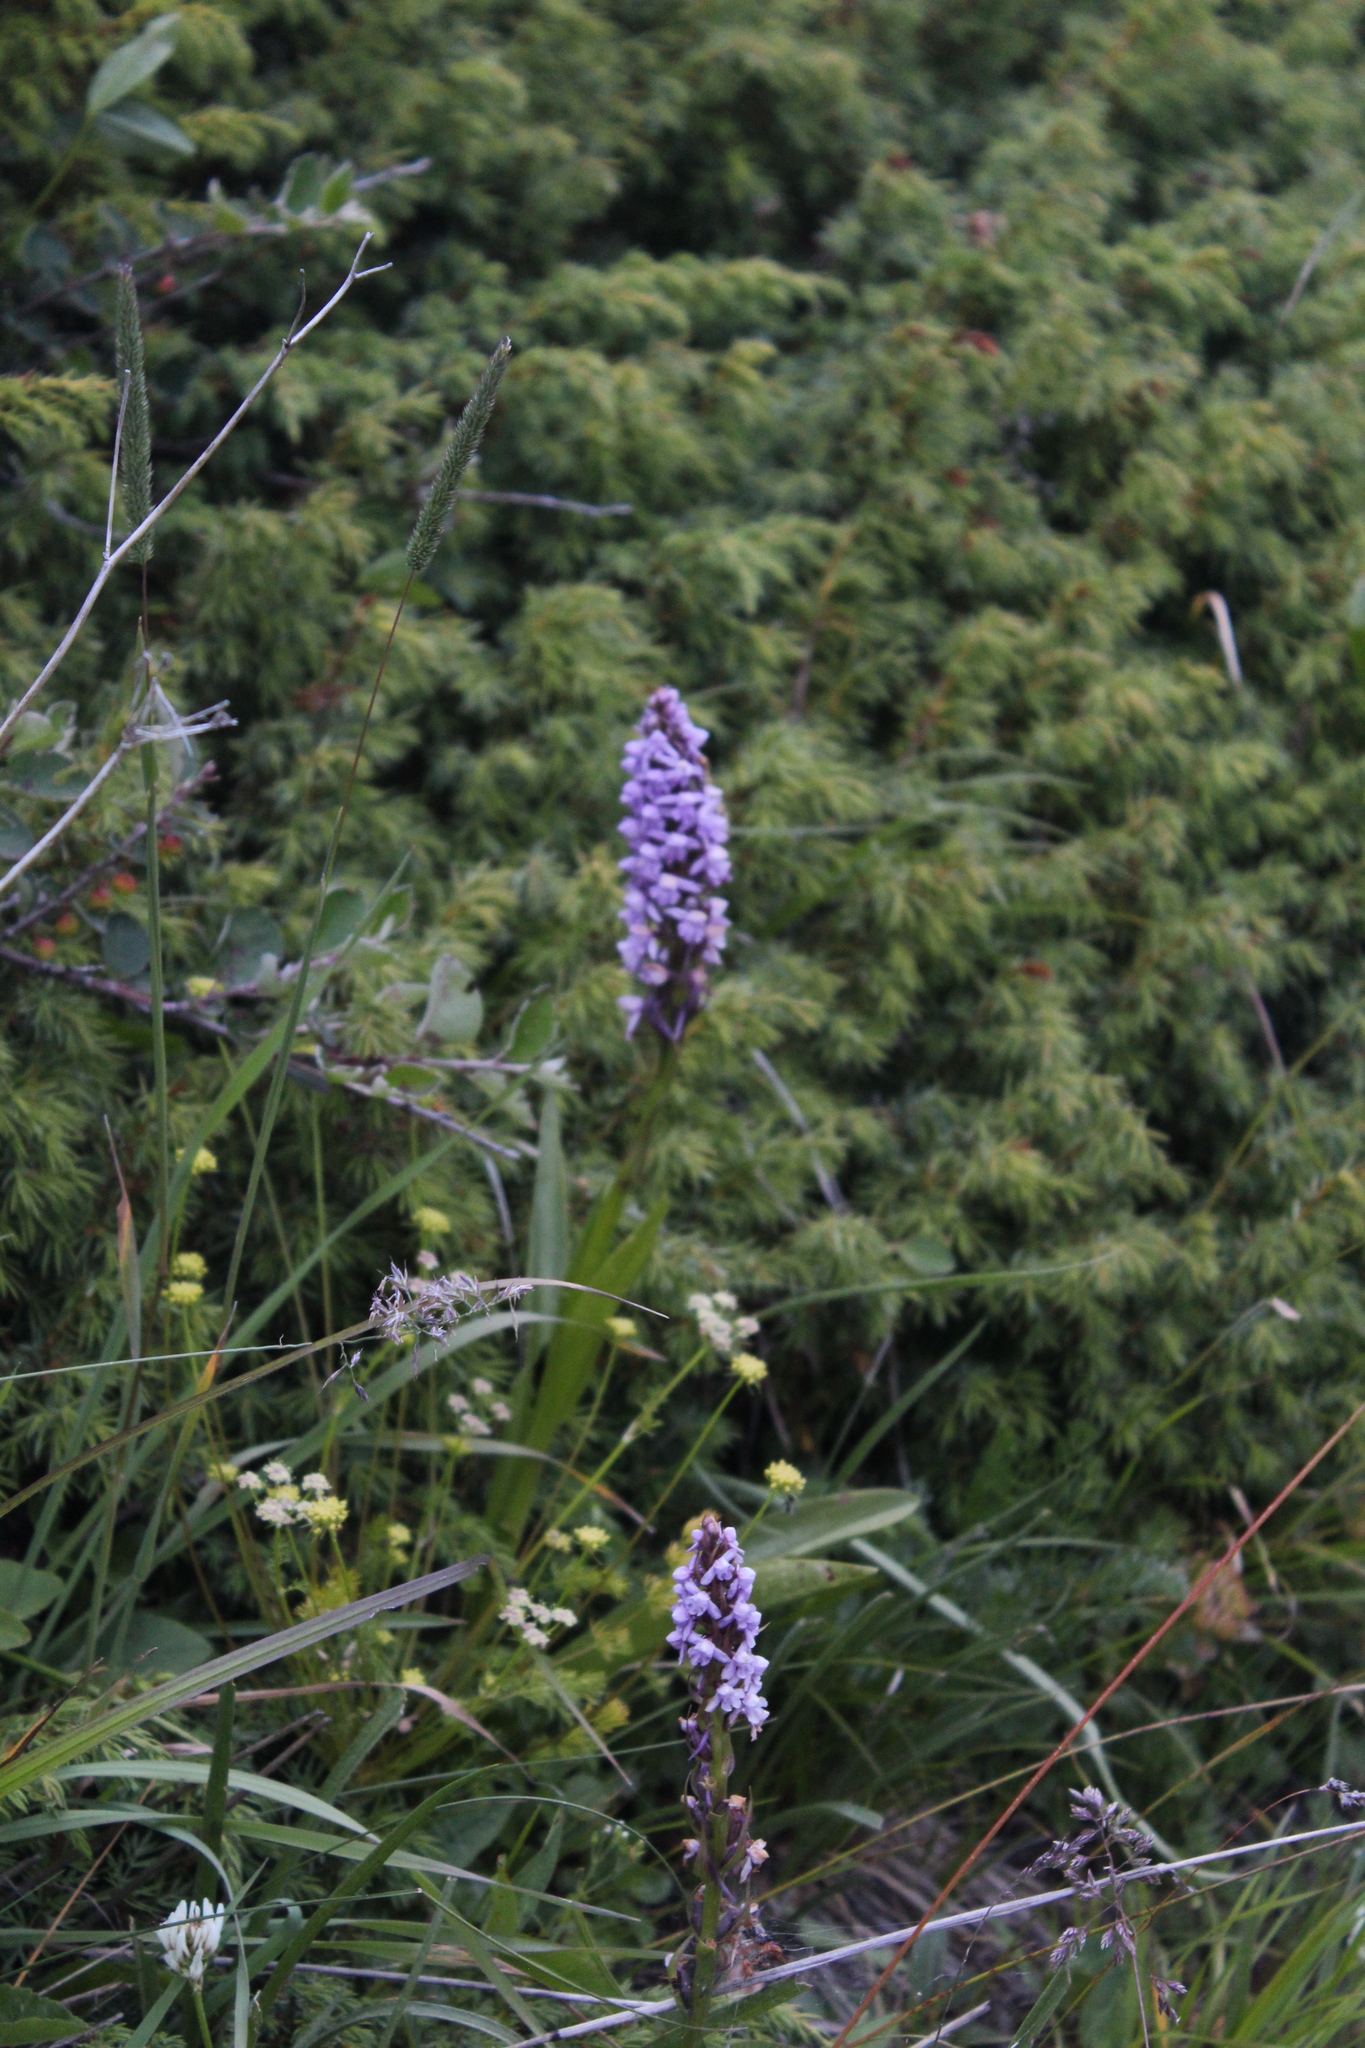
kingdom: Plantae
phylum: Tracheophyta
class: Liliopsida
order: Asparagales
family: Orchidaceae
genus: Gymnadenia
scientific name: Gymnadenia conopsea
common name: Fragrant orchid
